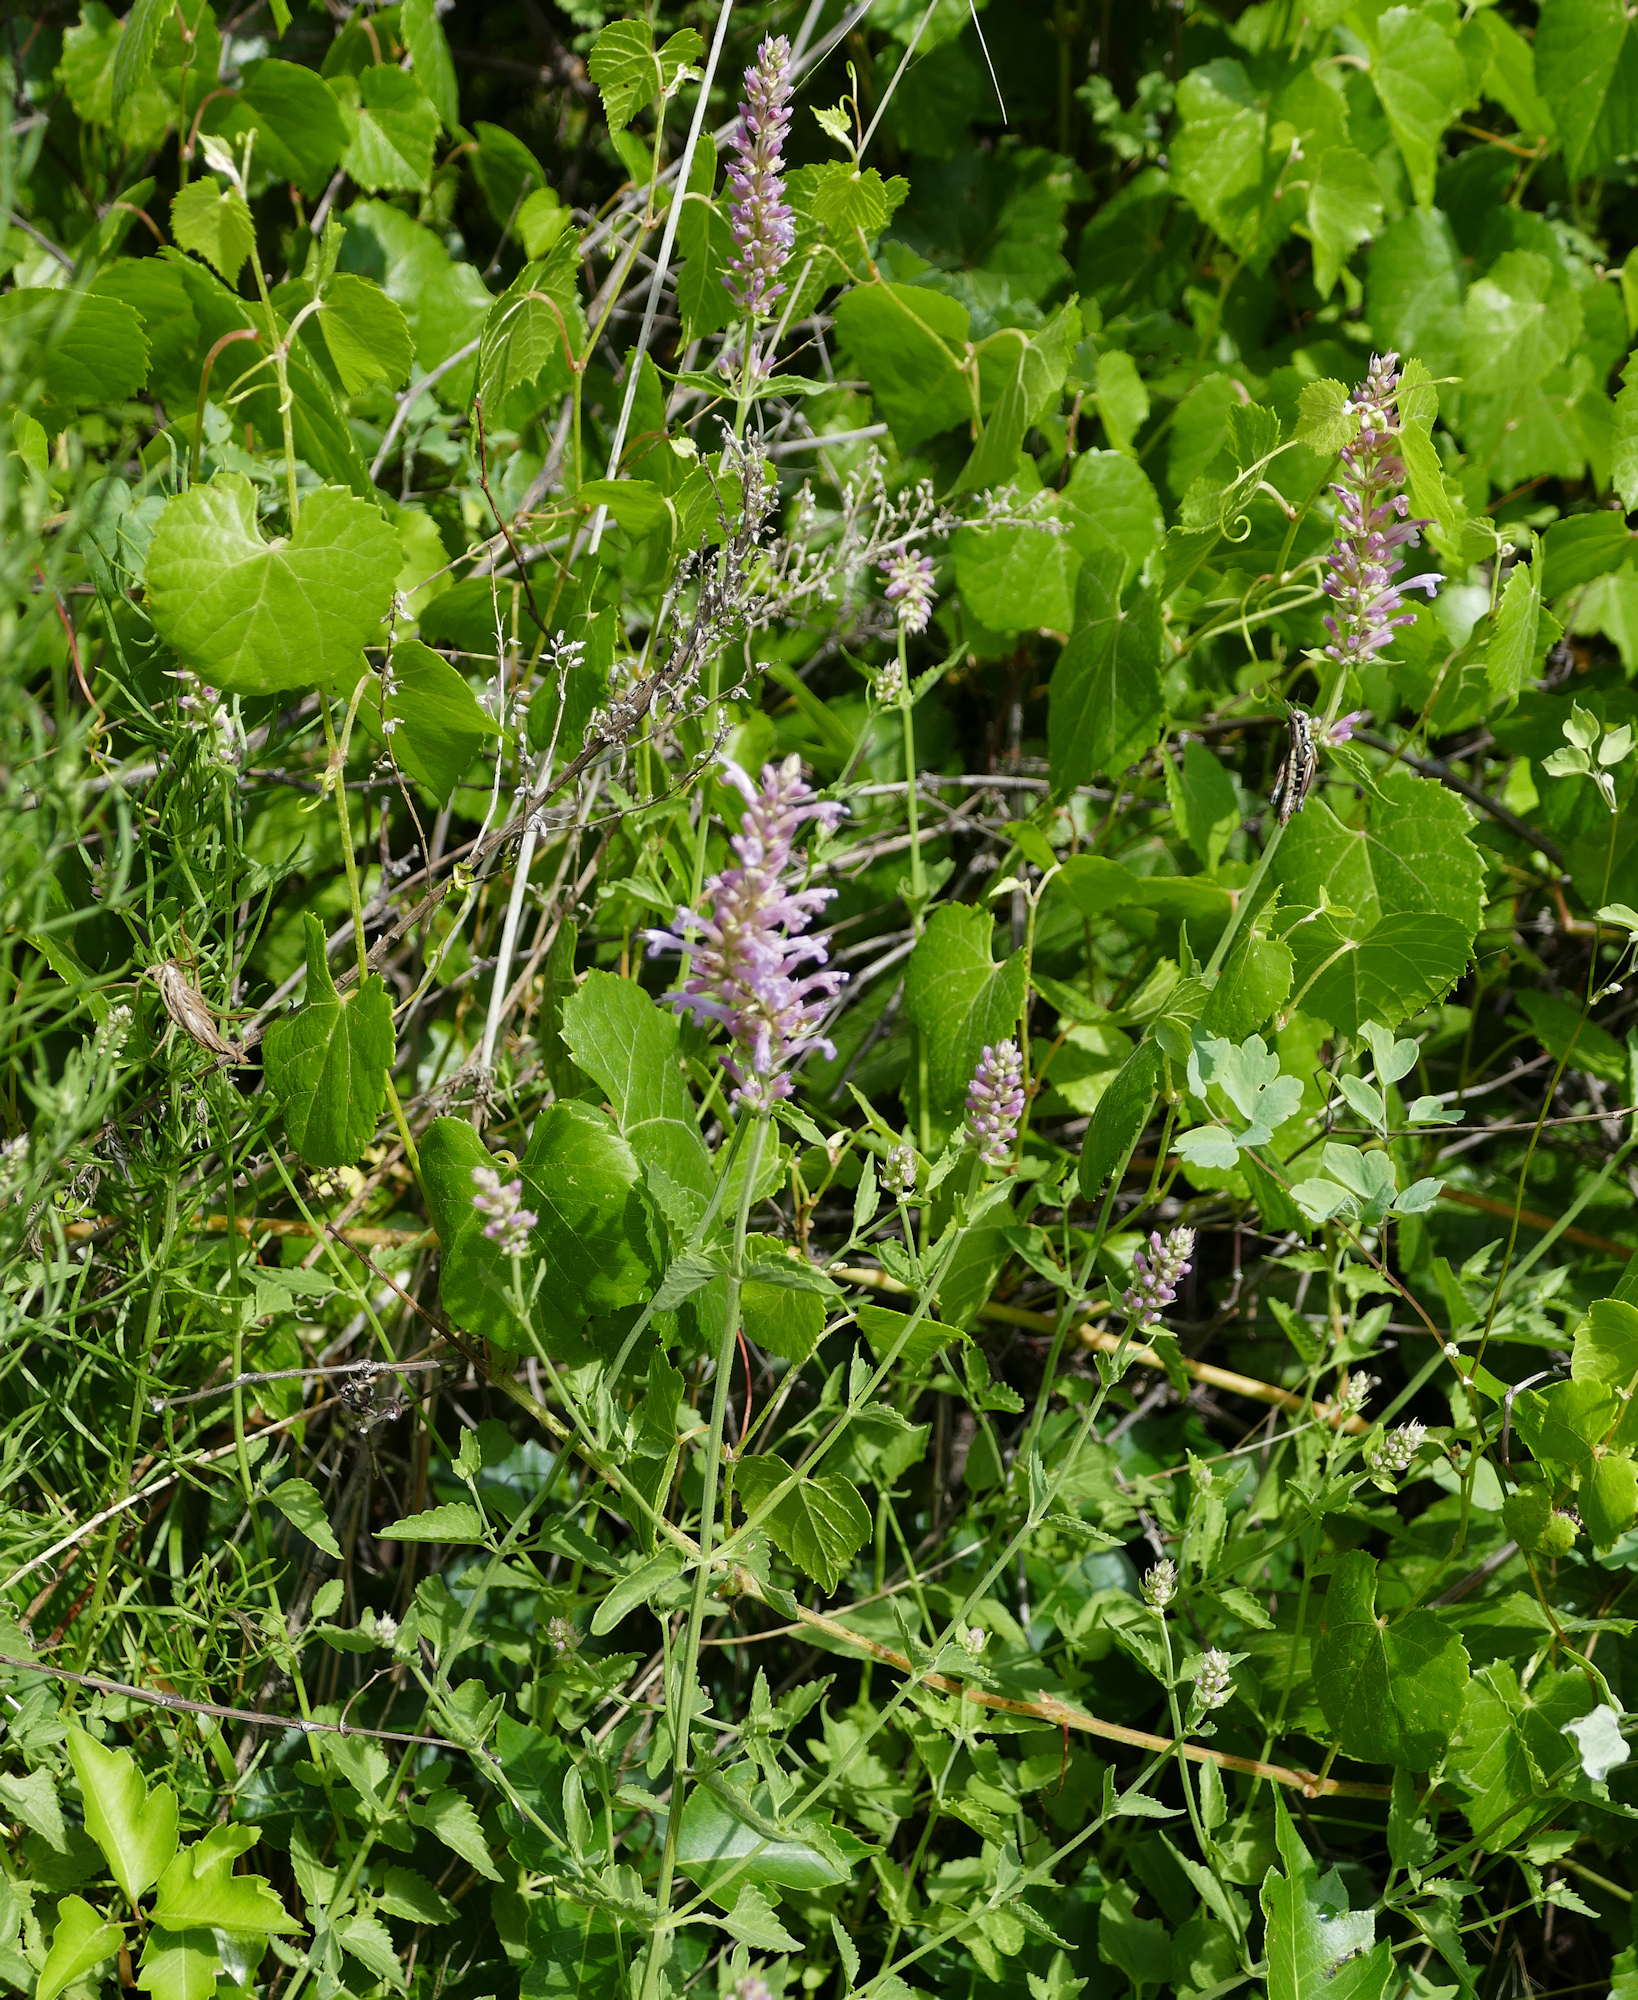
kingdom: Plantae
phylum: Tracheophyta
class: Magnoliopsida
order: Lamiales
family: Lamiaceae
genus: Agastache
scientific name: Agastache pallidiflora
